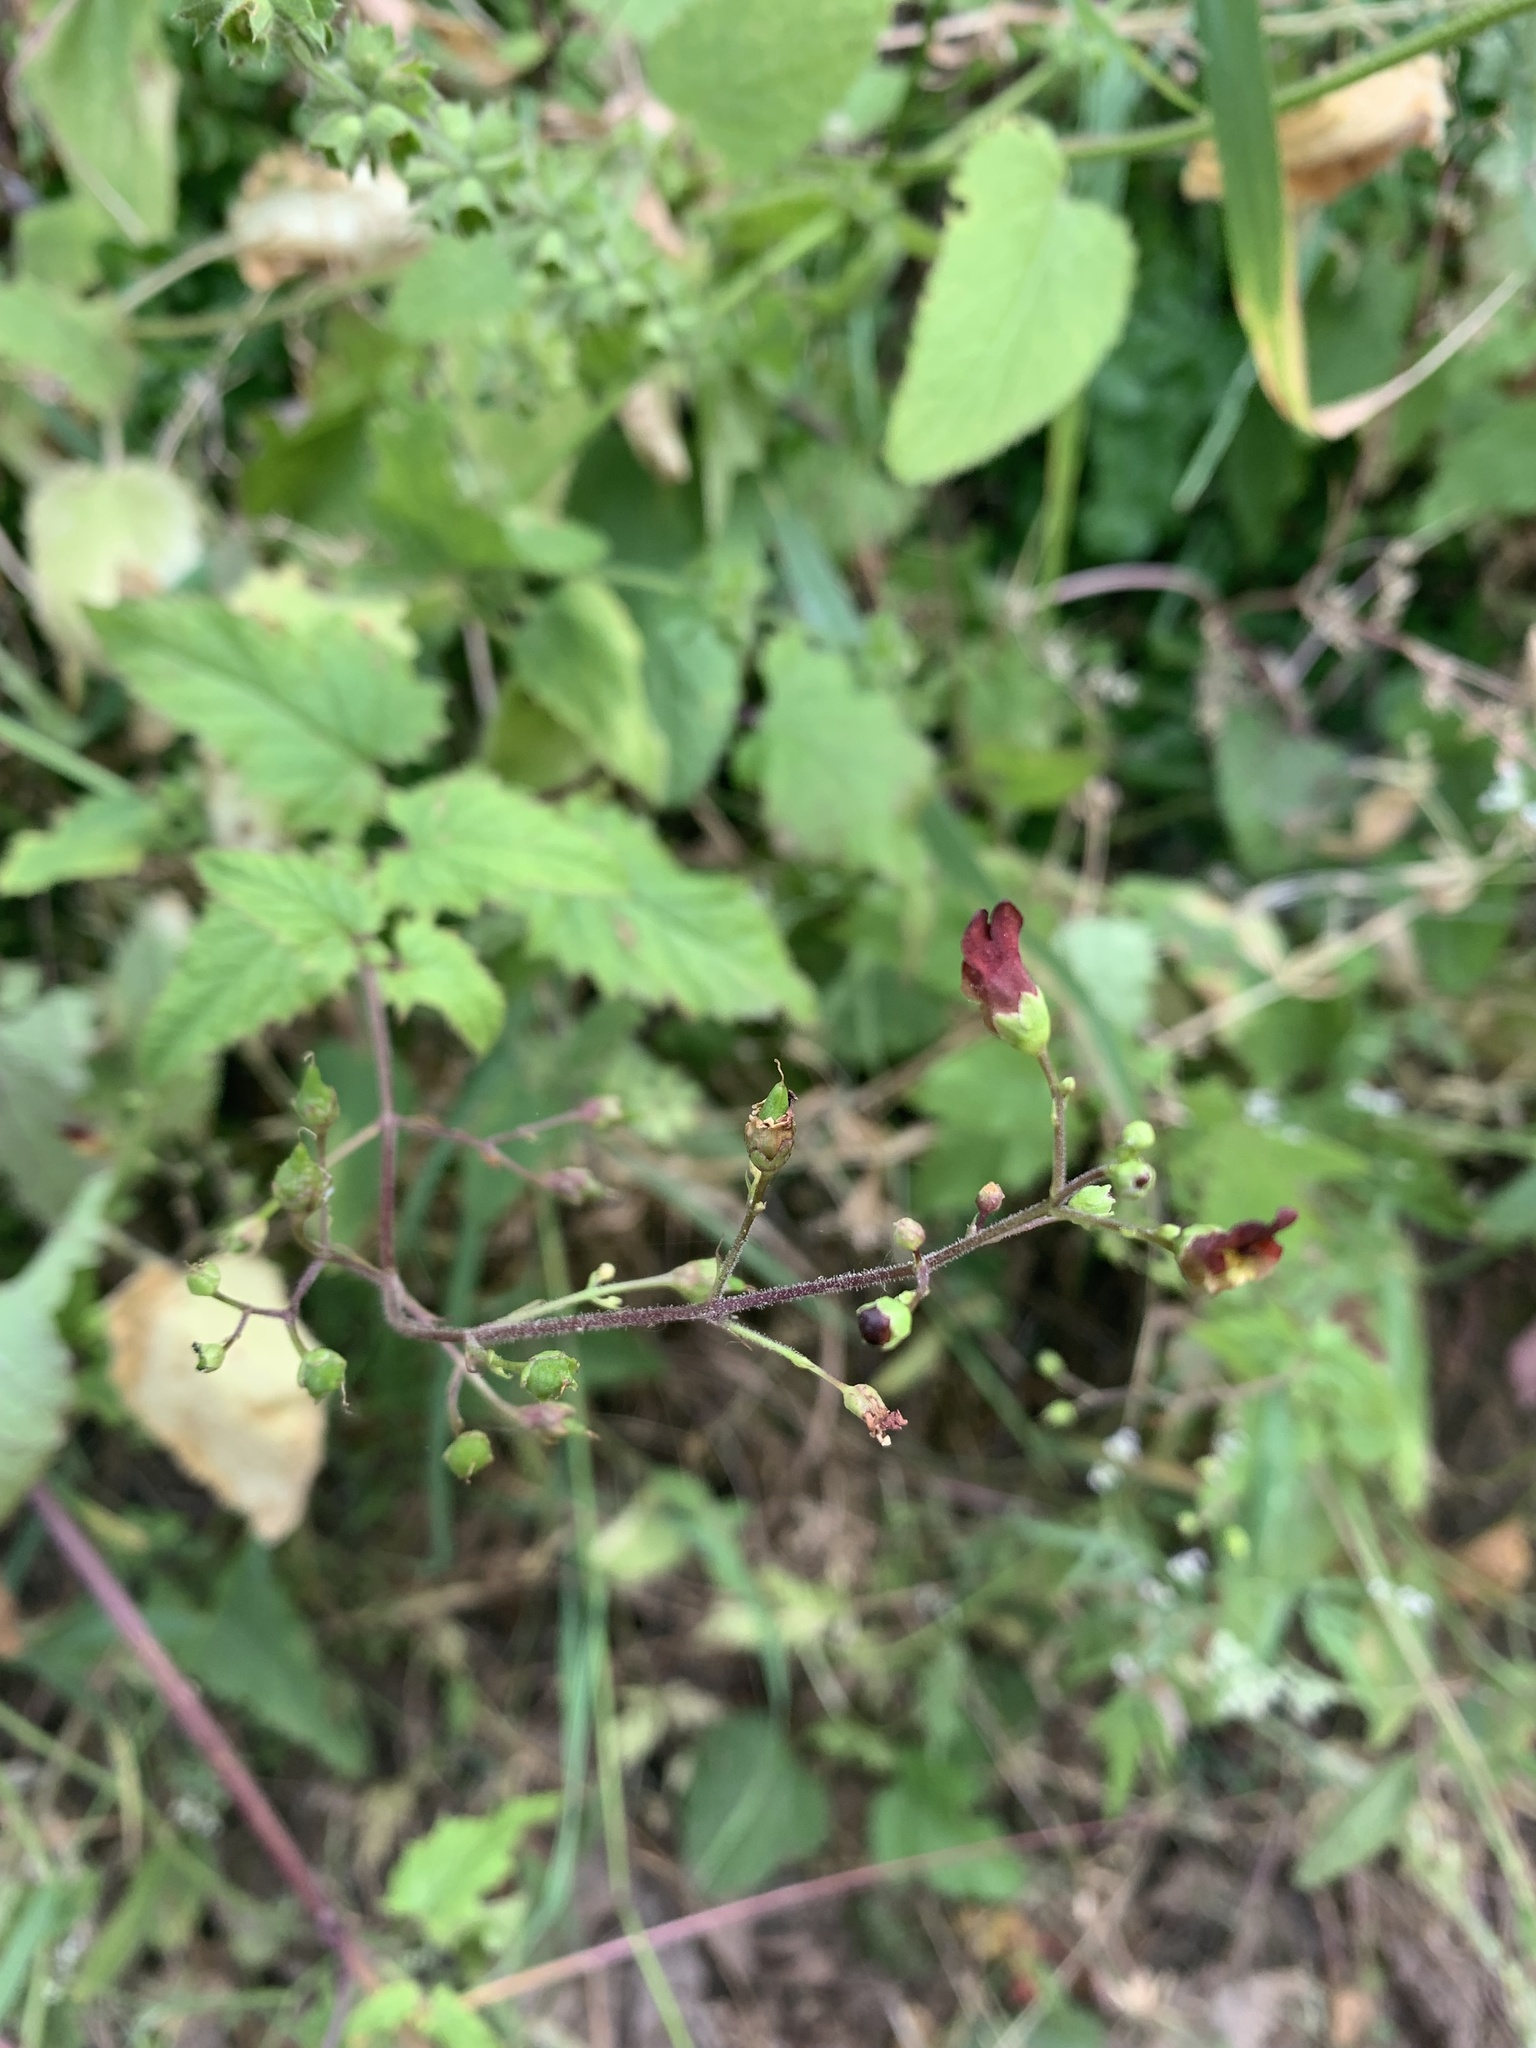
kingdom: Plantae
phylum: Tracheophyta
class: Magnoliopsida
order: Lamiales
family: Scrophulariaceae
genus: Scrophularia
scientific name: Scrophularia californica
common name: California figwort
